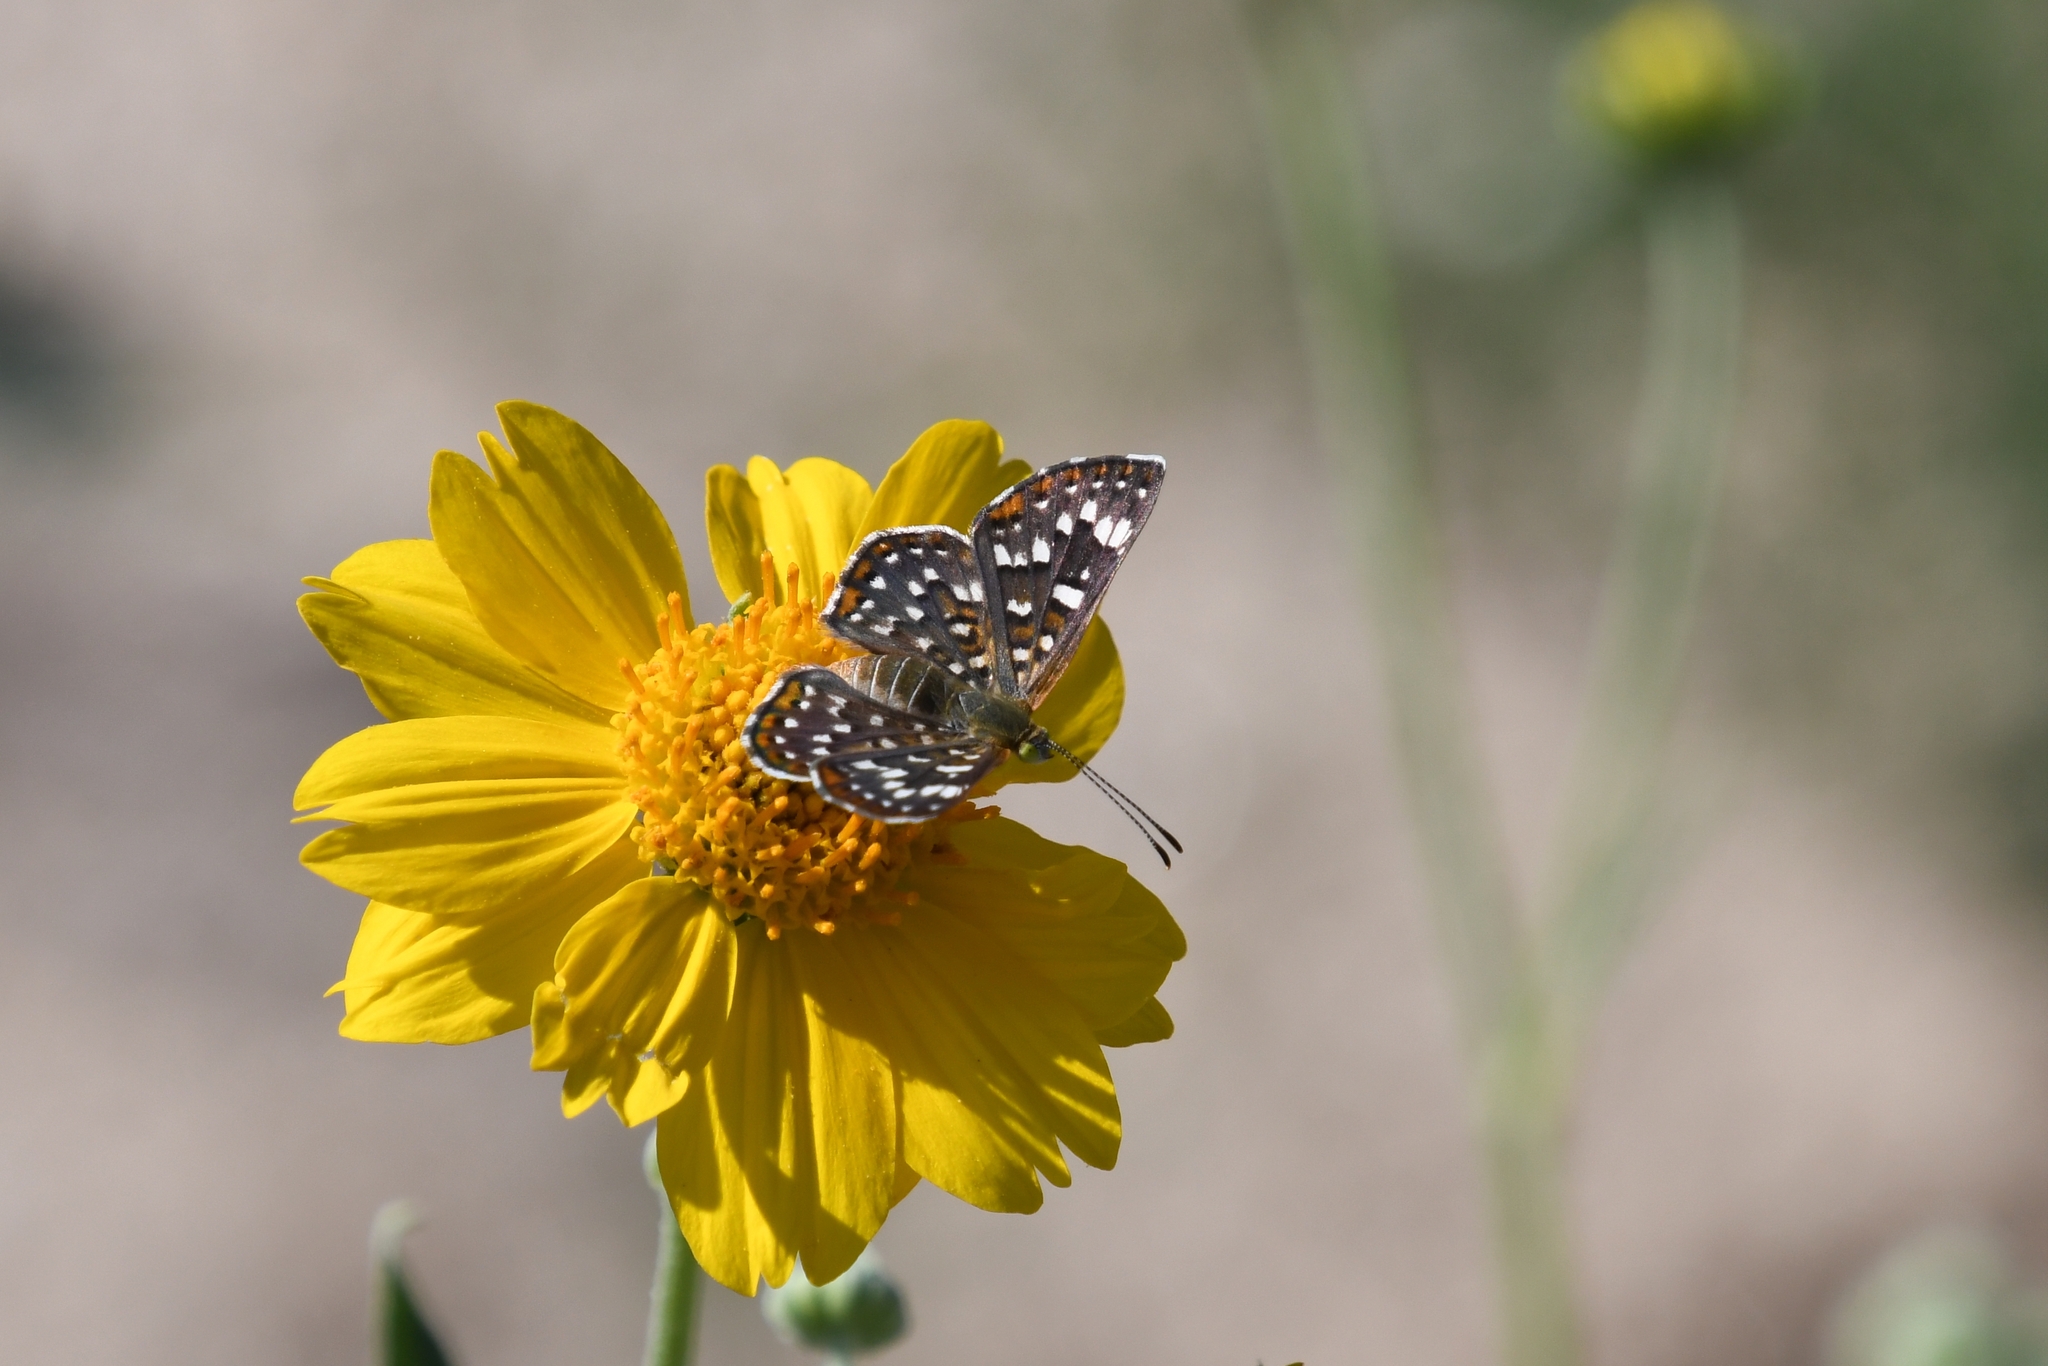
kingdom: Animalia
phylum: Arthropoda
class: Insecta
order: Lepidoptera
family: Riodinidae
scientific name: Riodinidae
